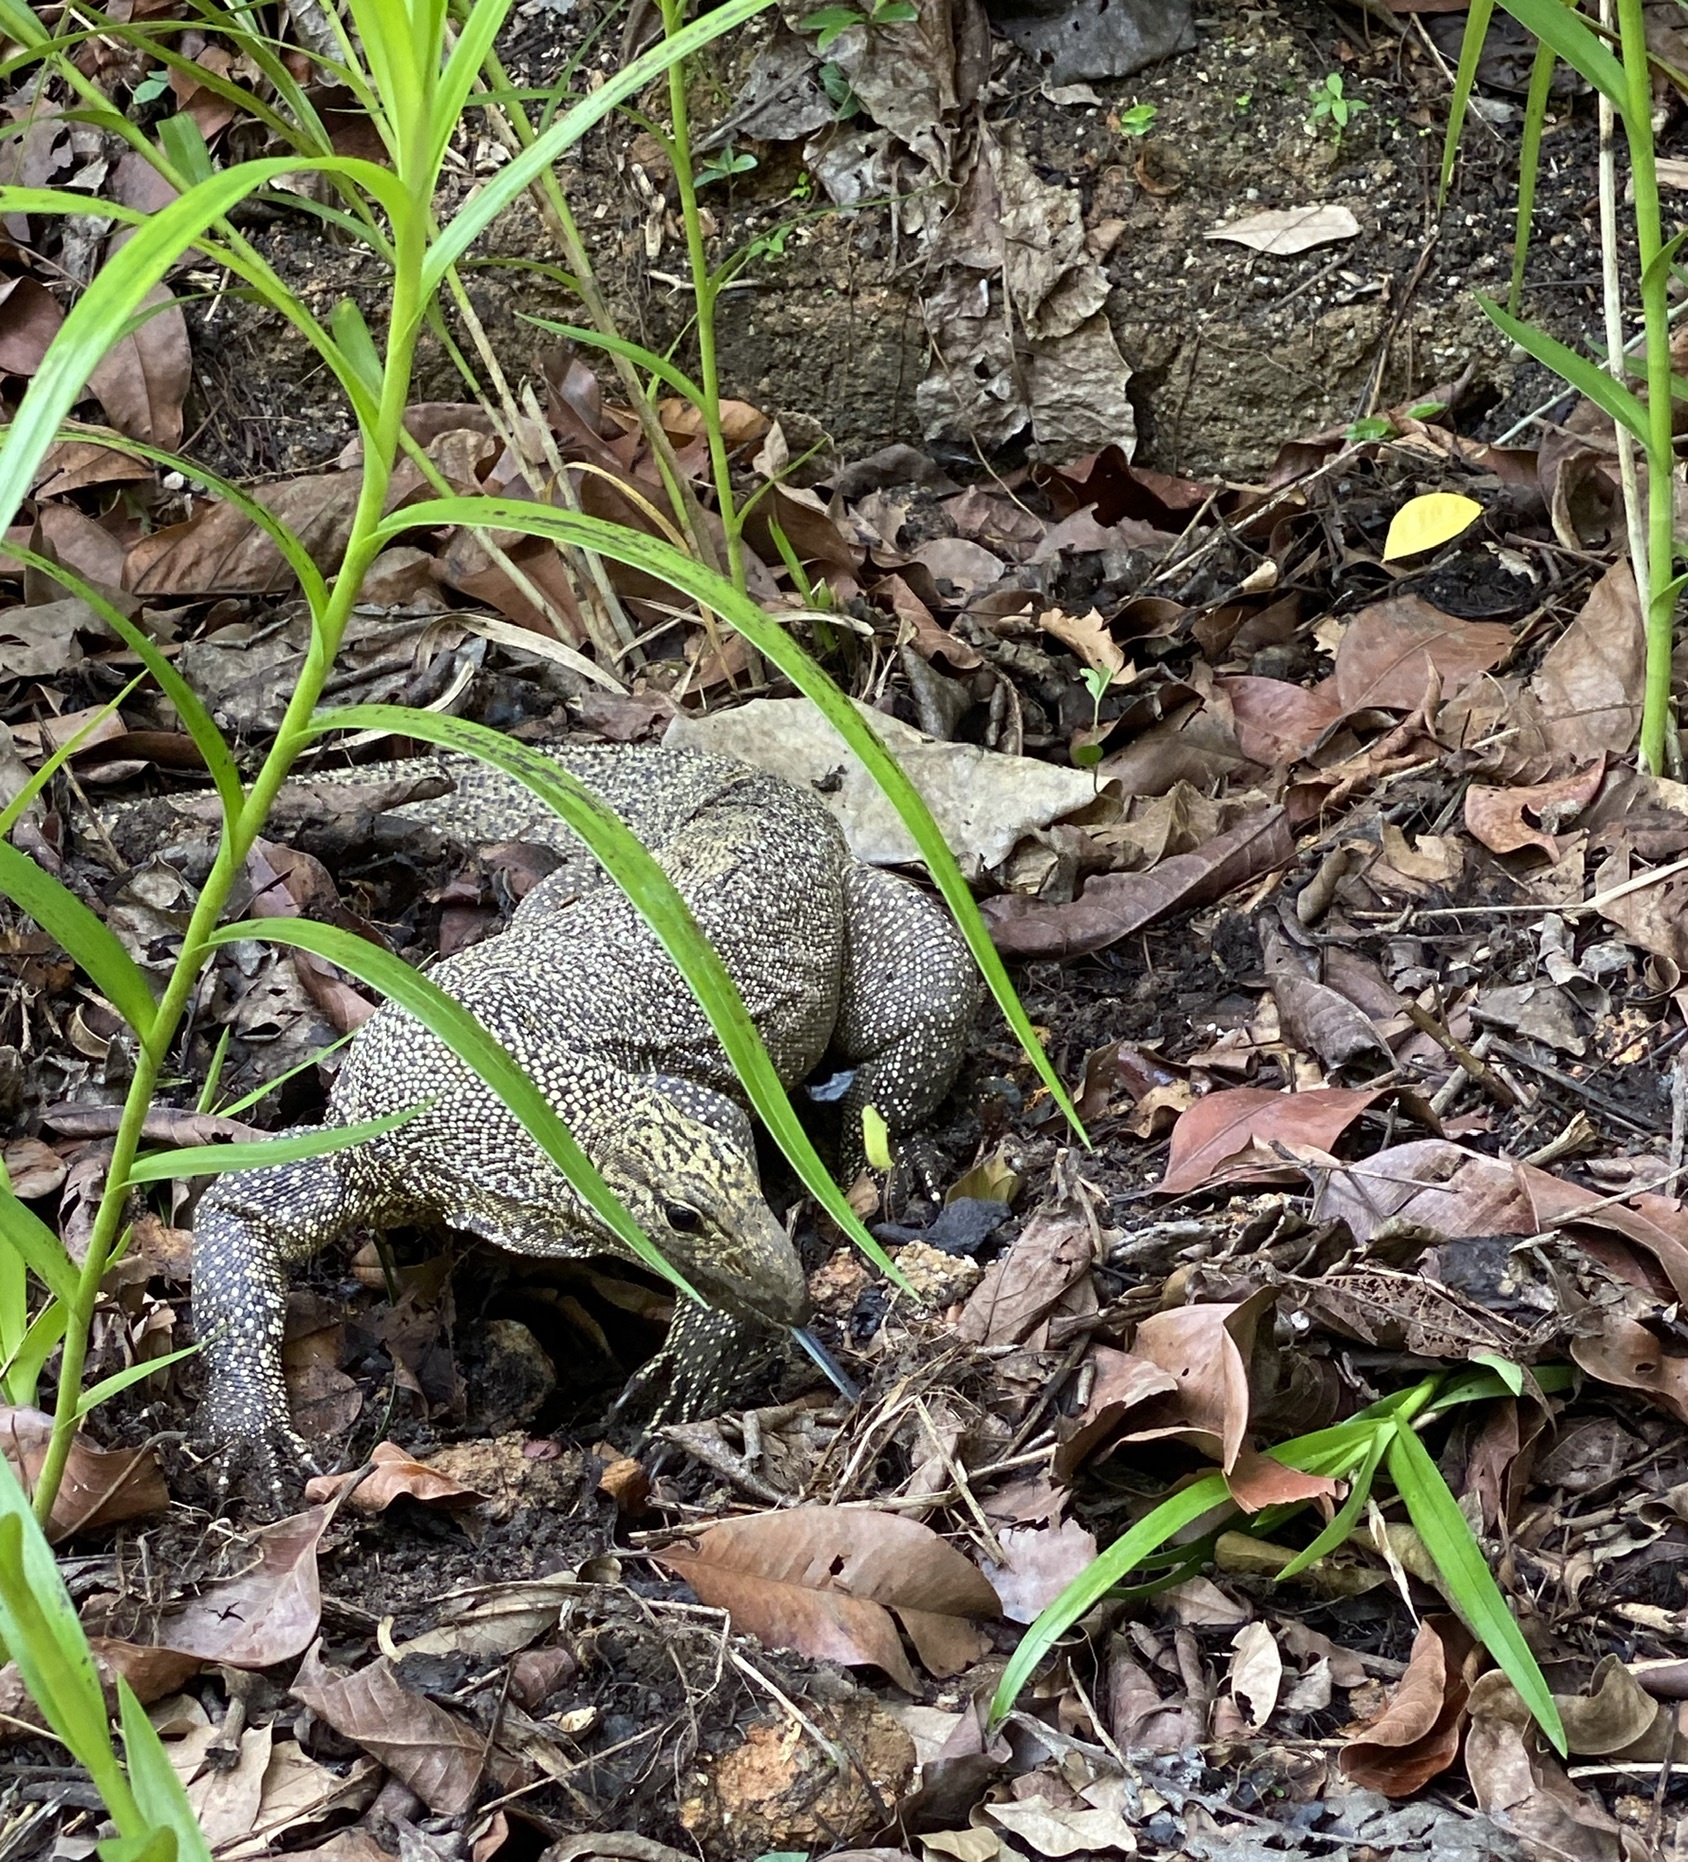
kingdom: Animalia
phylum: Chordata
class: Squamata
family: Varanidae
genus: Varanus
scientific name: Varanus nebulosus
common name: Clouded monitor
